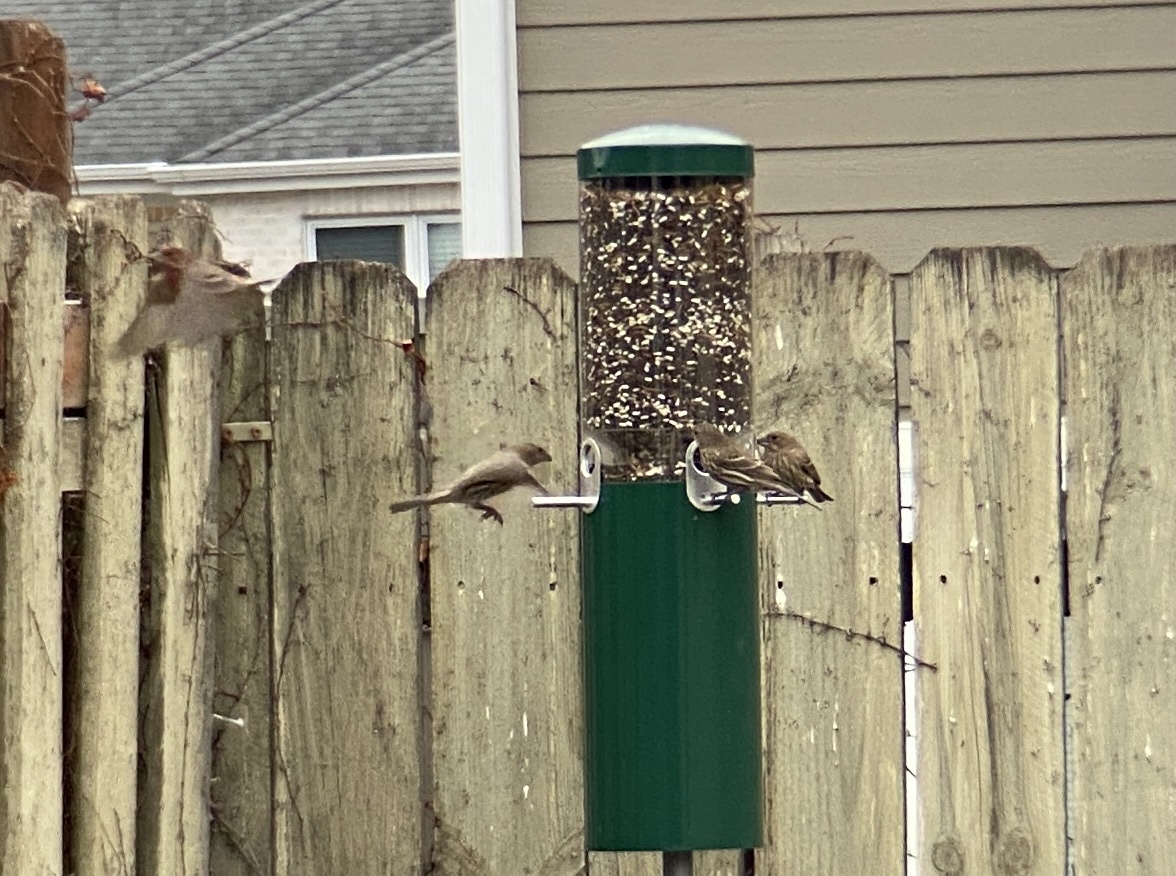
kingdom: Animalia
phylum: Chordata
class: Aves
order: Passeriformes
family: Fringillidae
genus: Haemorhous
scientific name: Haemorhous mexicanus
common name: House finch
